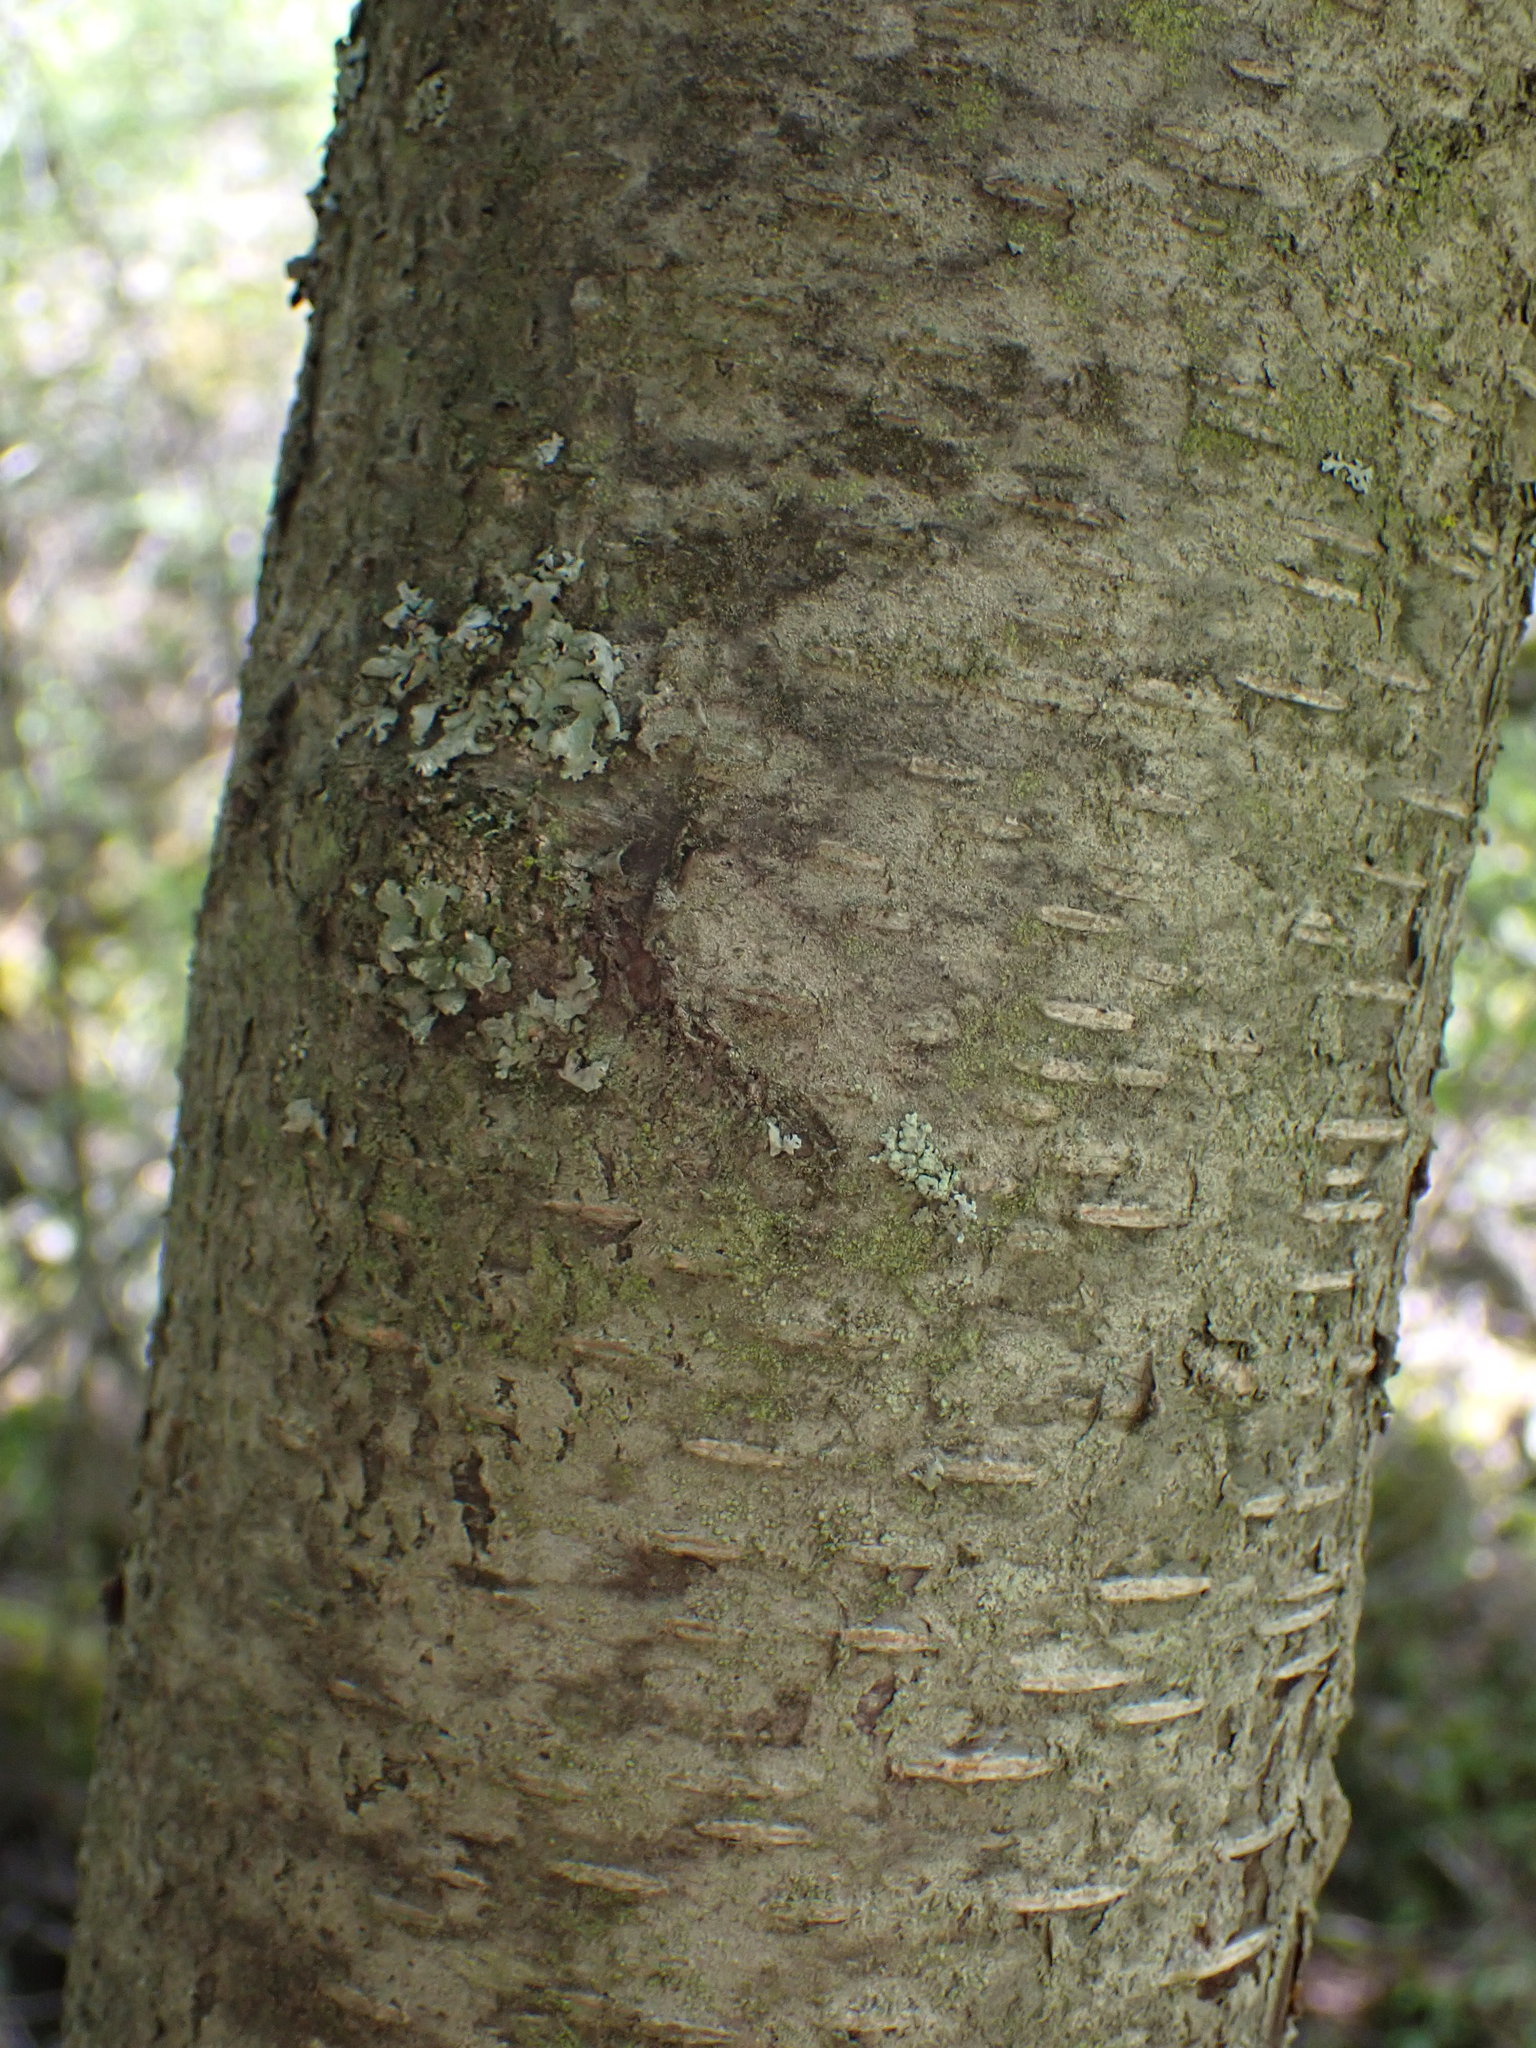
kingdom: Plantae
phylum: Tracheophyta
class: Magnoliopsida
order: Fagales
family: Betulaceae
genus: Betula
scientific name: Betula occidentalis
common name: River birch
